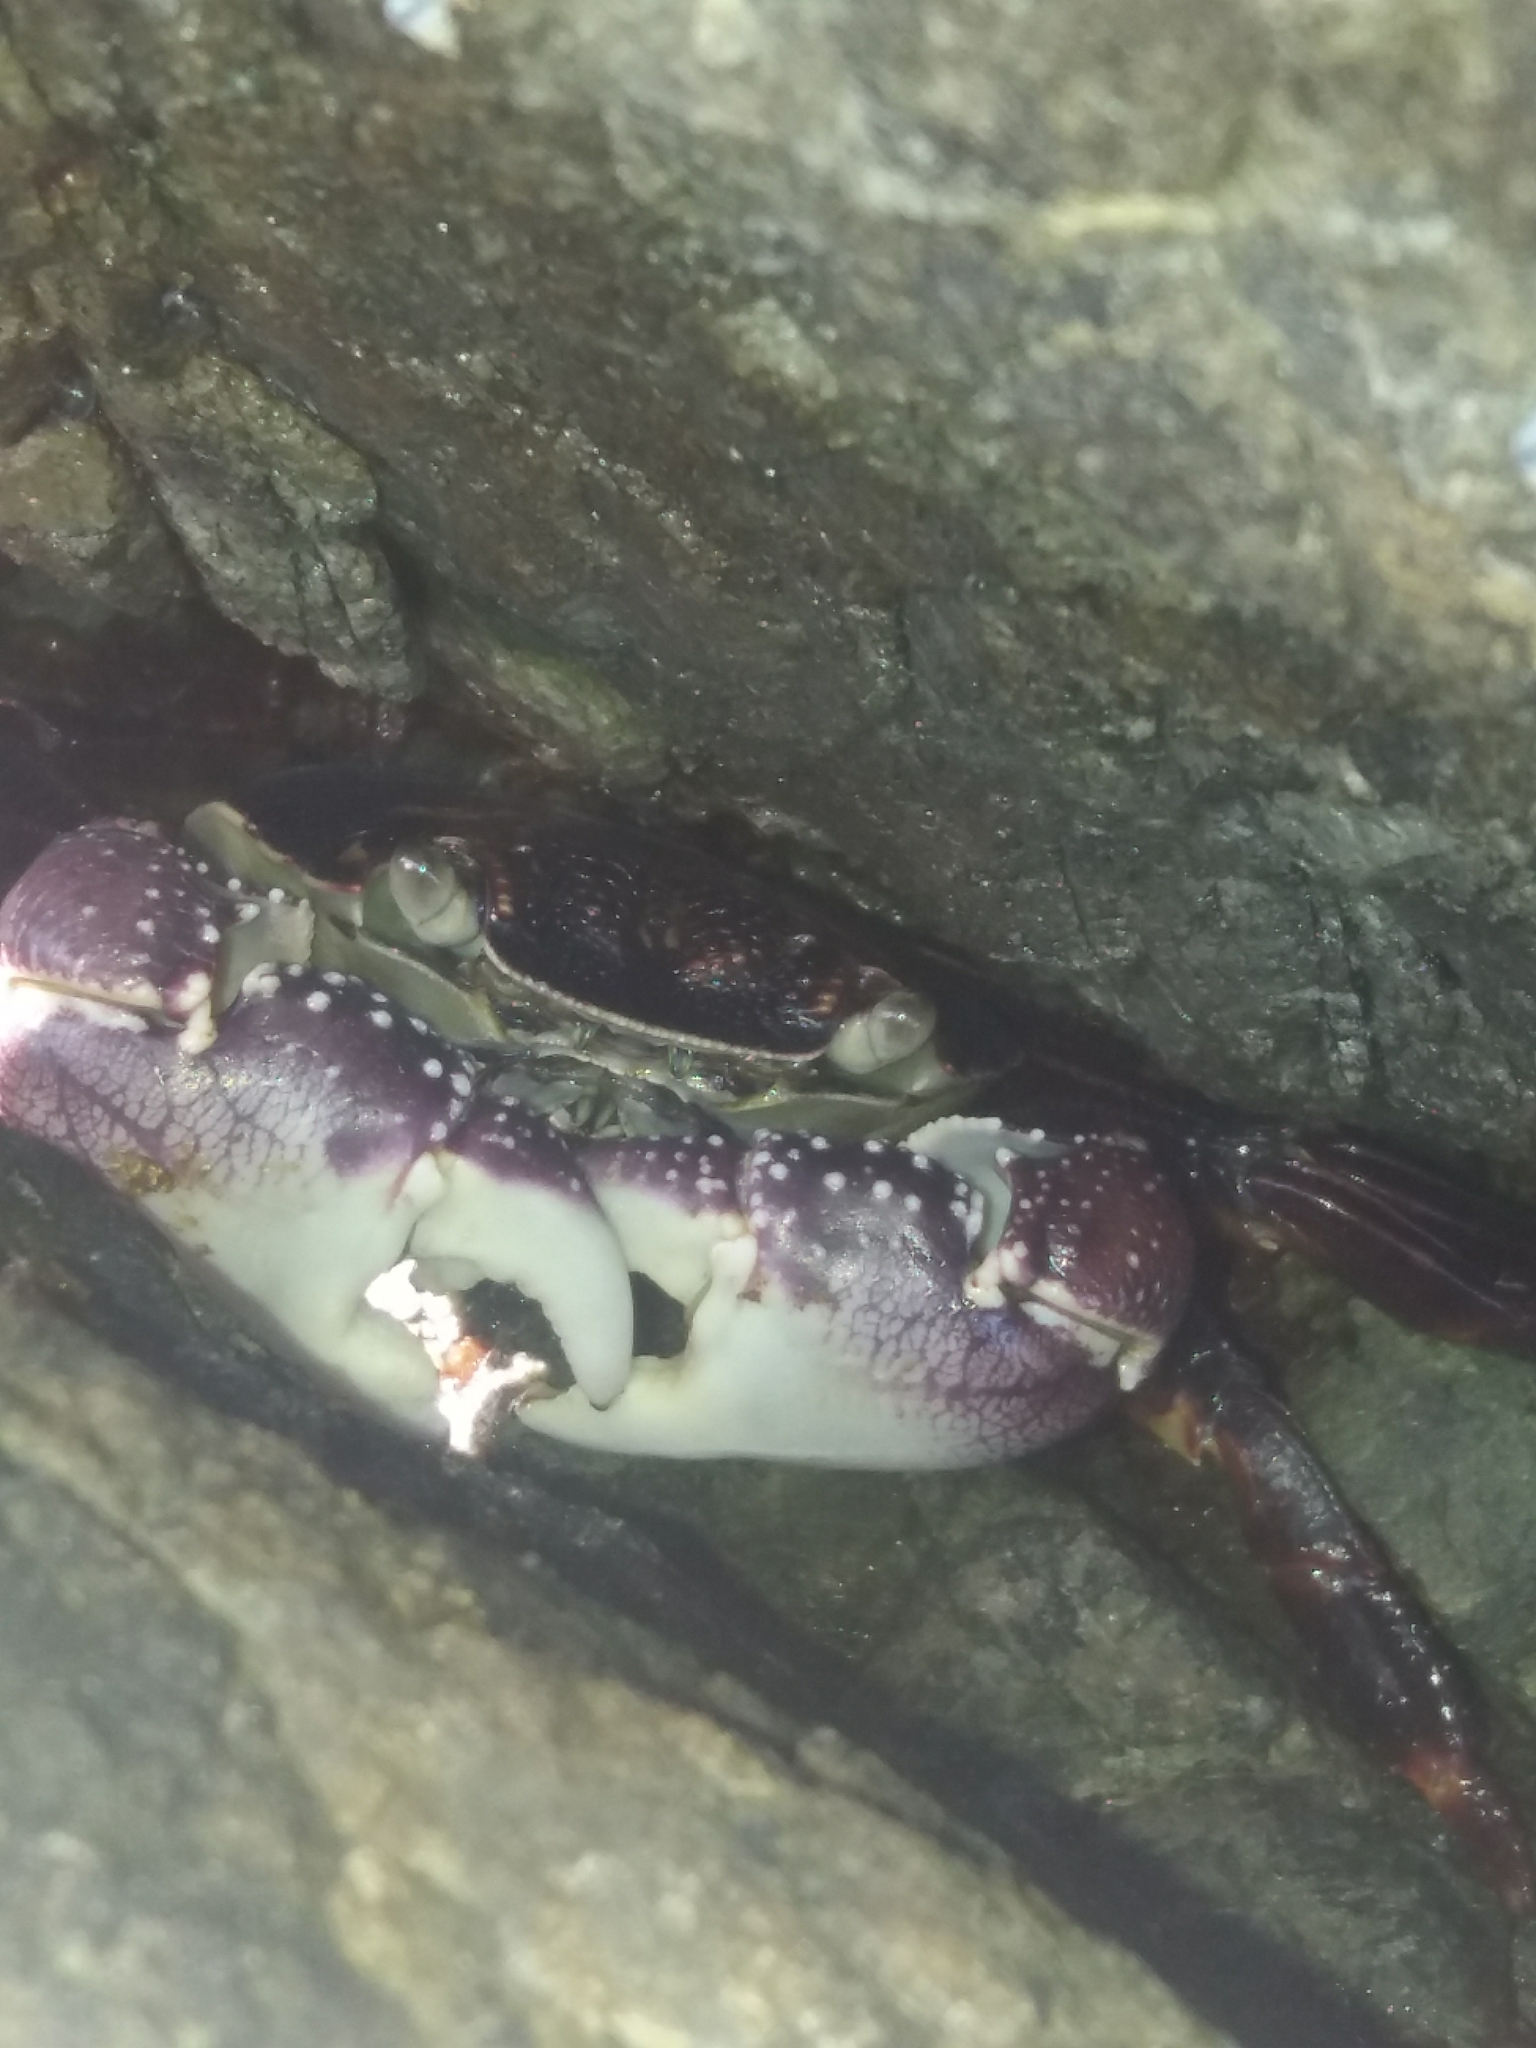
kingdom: Animalia
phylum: Arthropoda
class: Malacostraca
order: Decapoda
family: Grapsidae
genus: Leptograpsus
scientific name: Leptograpsus variegatus
